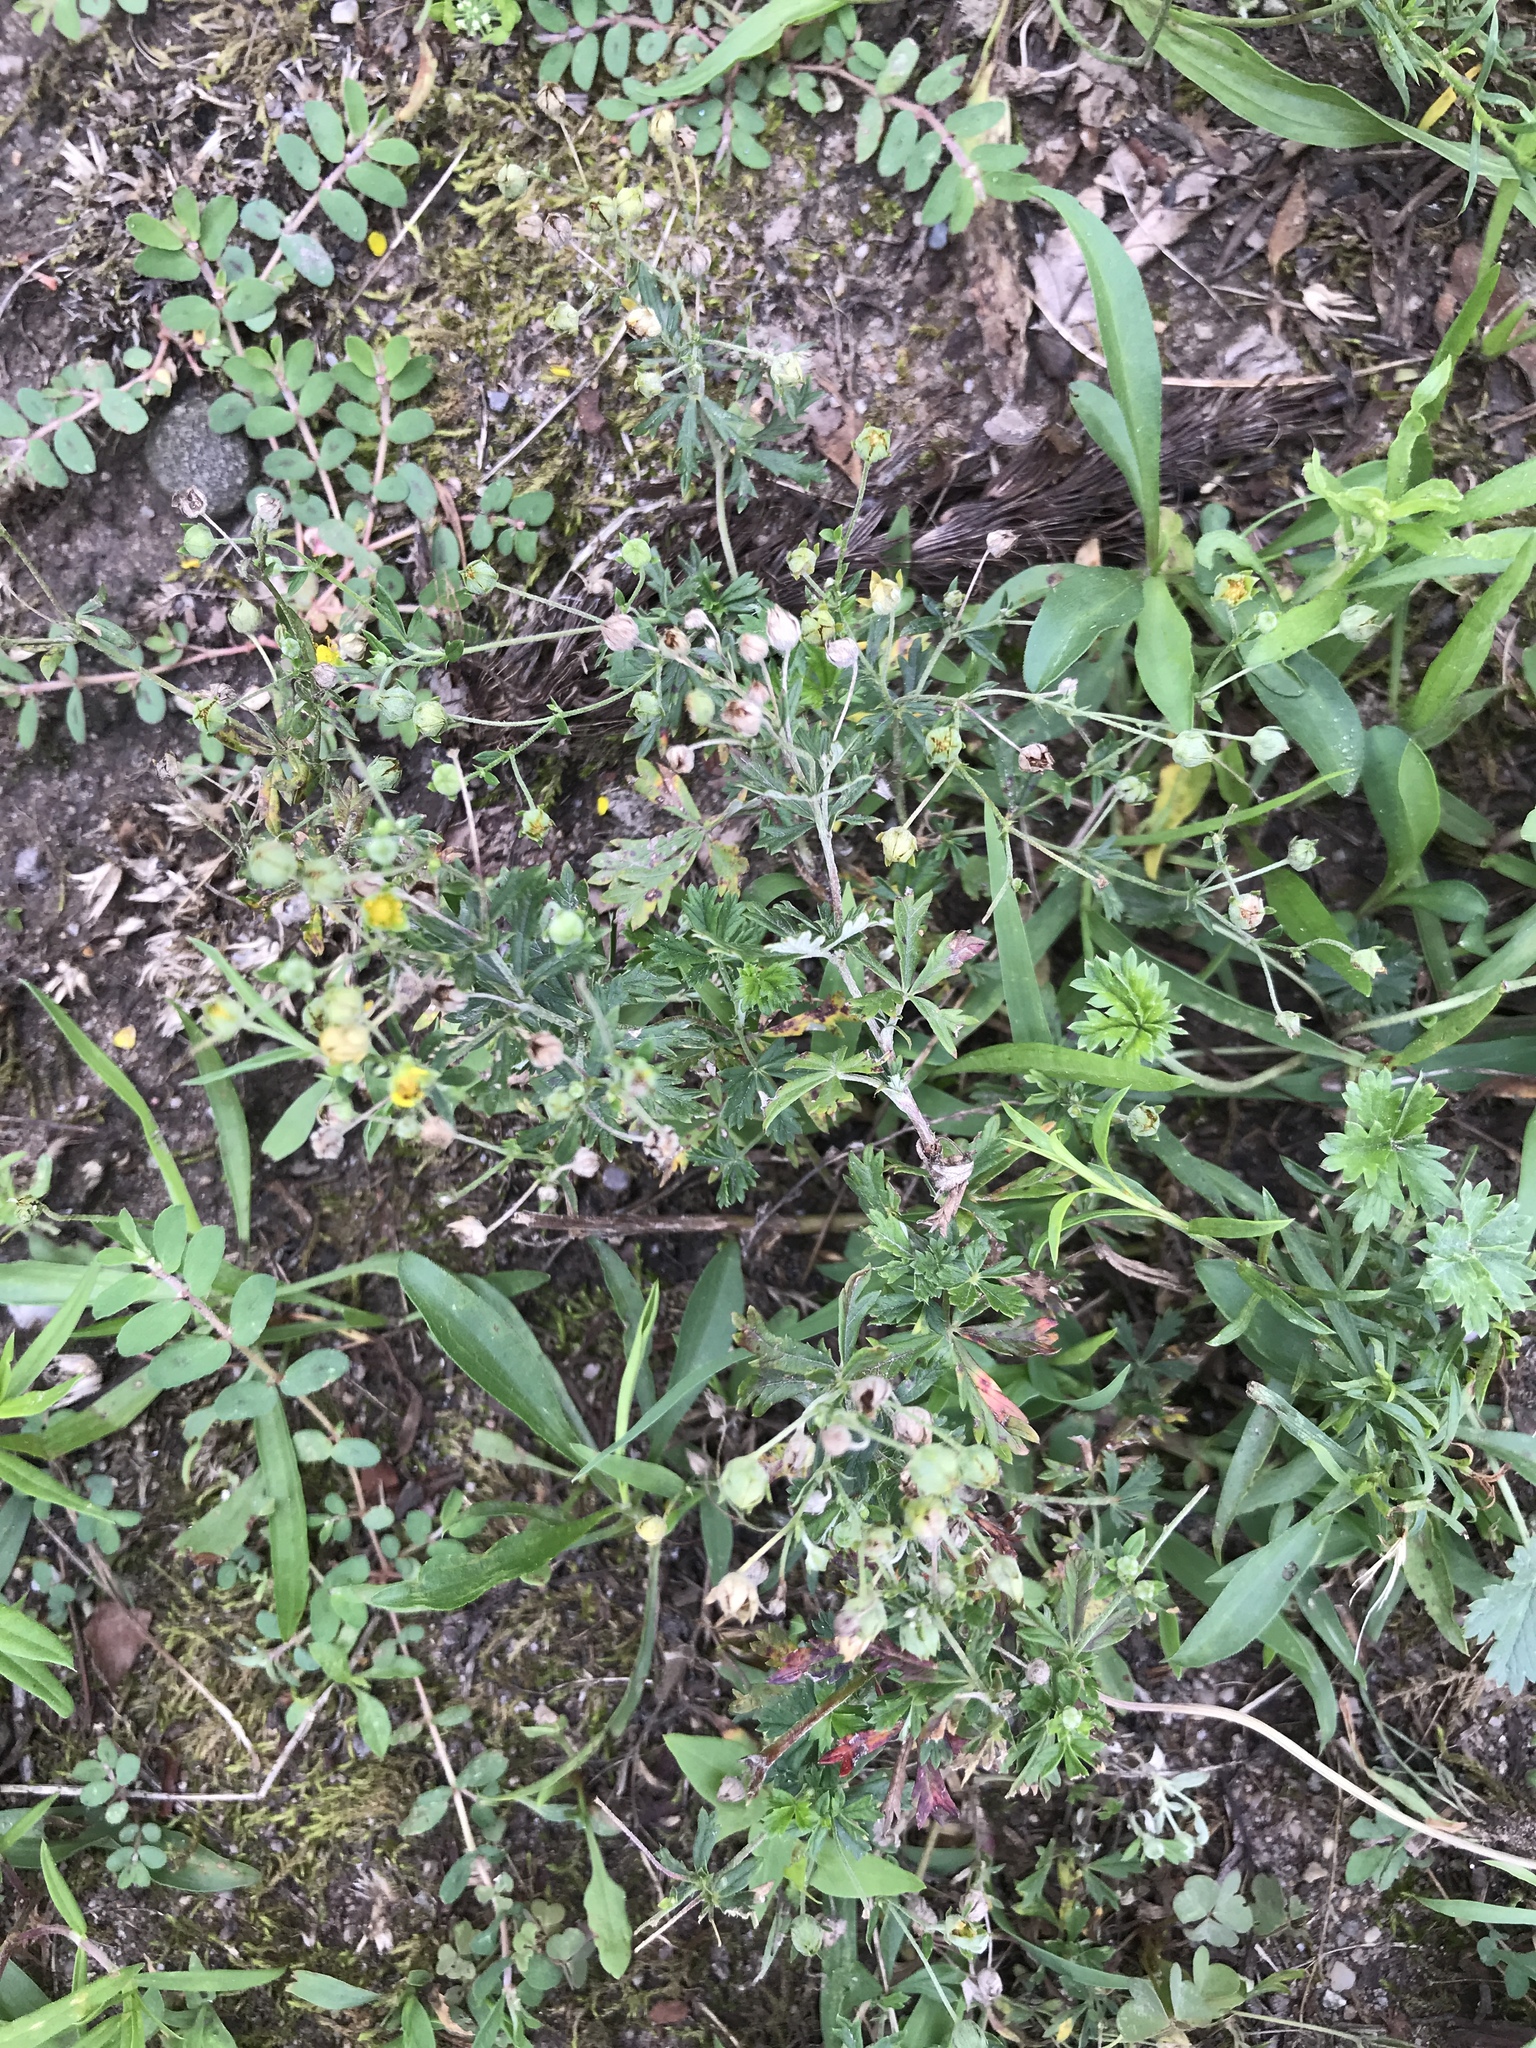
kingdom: Plantae
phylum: Tracheophyta
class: Magnoliopsida
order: Rosales
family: Rosaceae
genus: Potentilla
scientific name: Potentilla argentea
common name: Hoary cinquefoil
